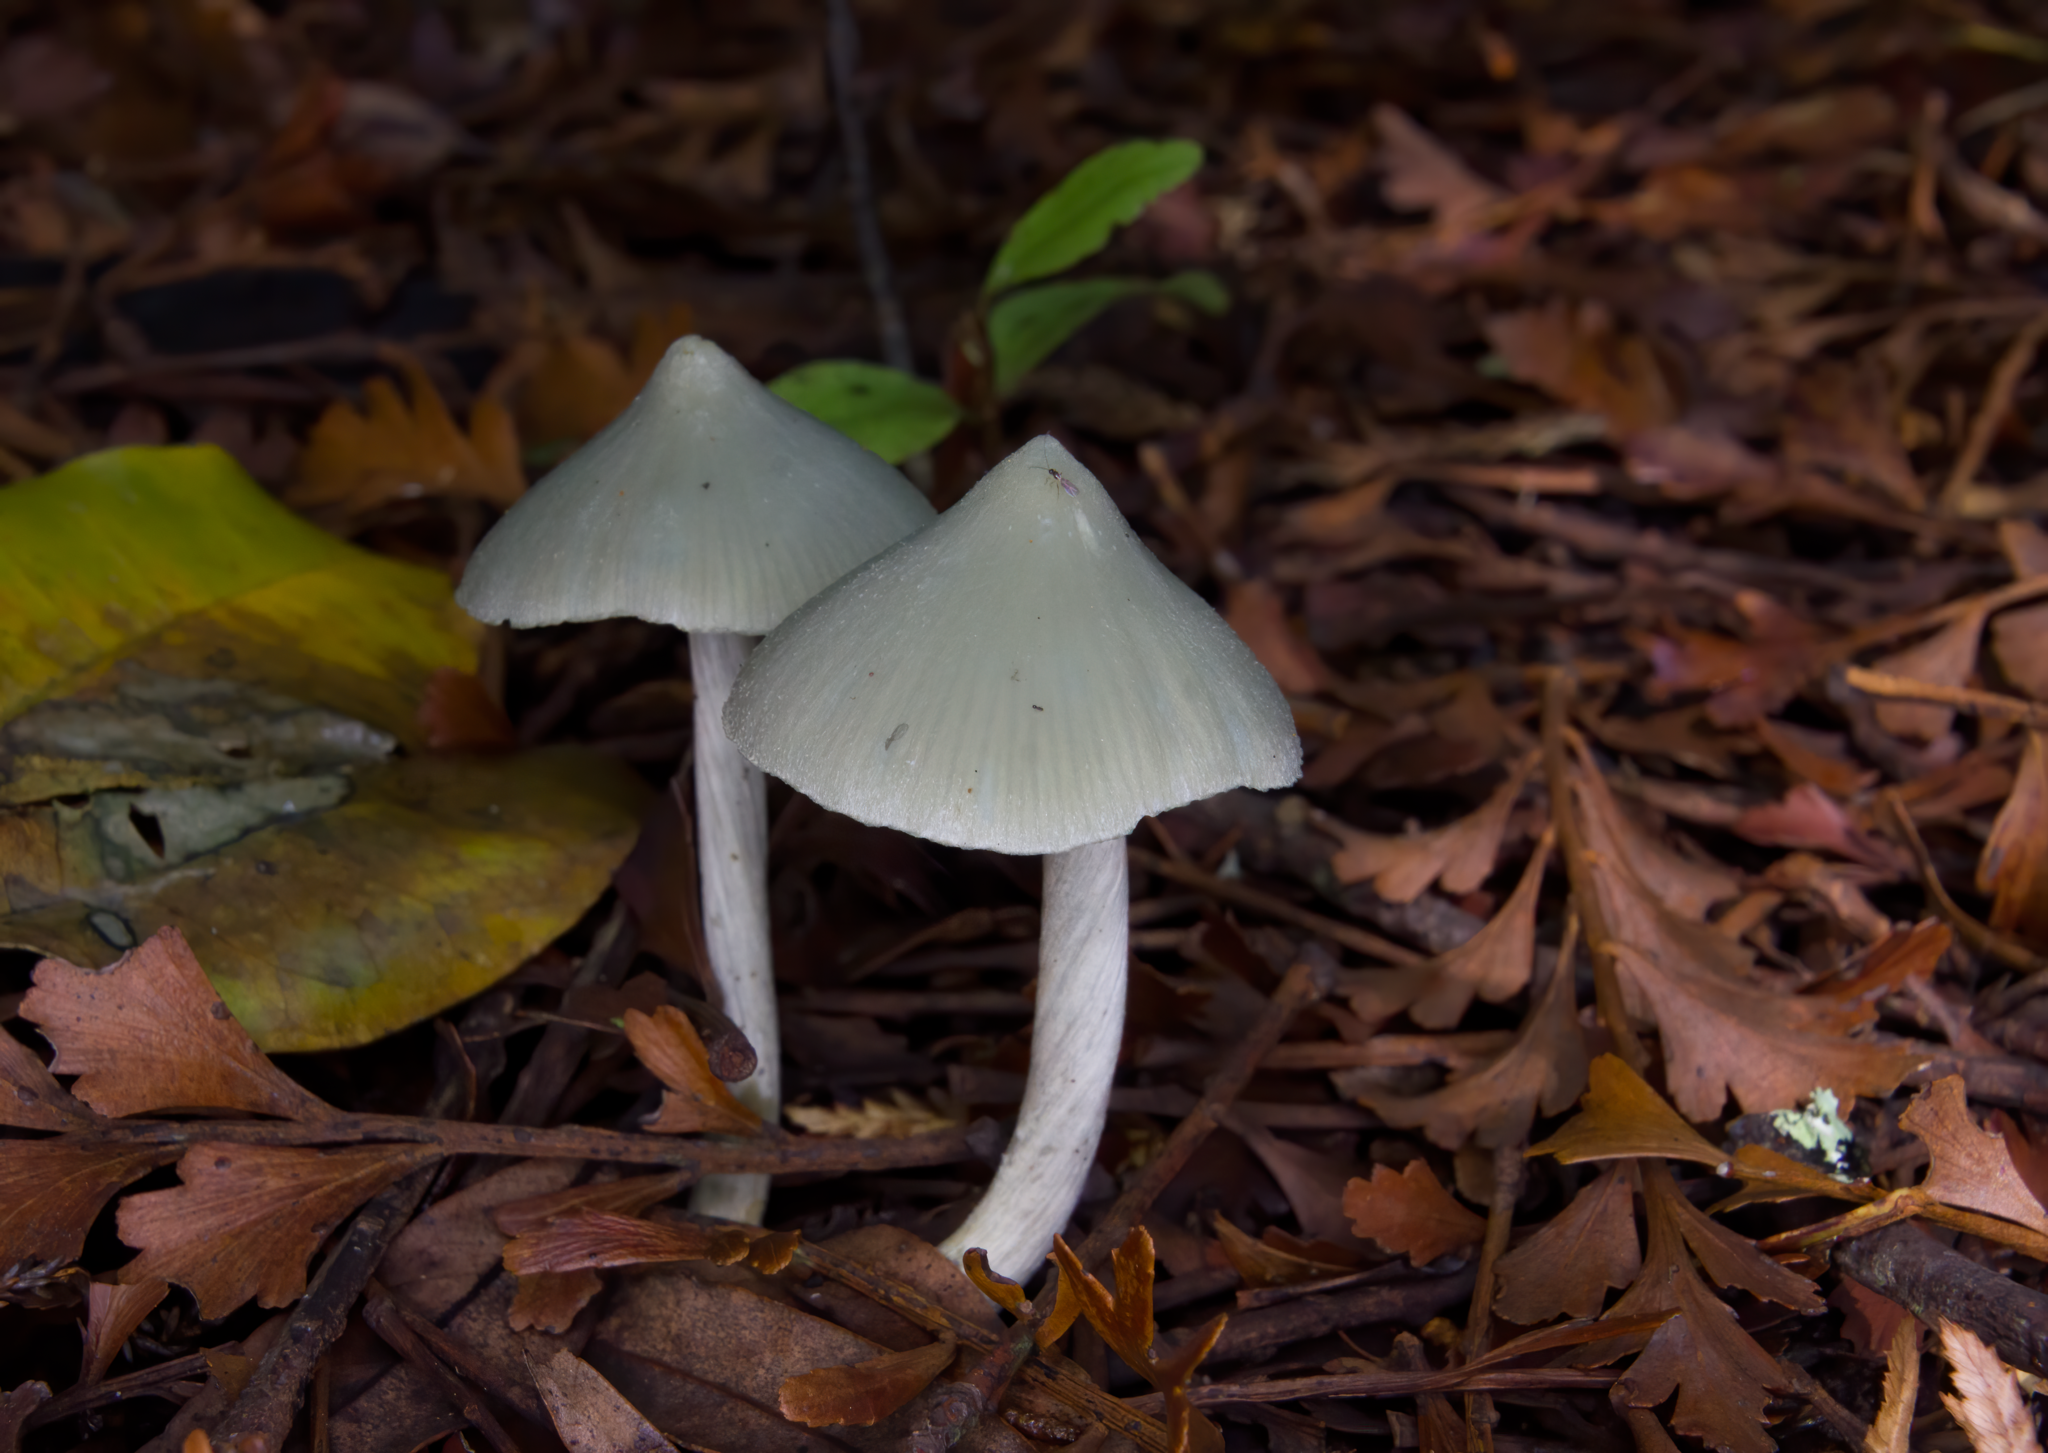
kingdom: Fungi
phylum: Basidiomycota
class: Agaricomycetes
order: Agaricales
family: Entolomataceae
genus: Entoloma
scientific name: Entoloma canoconicum
